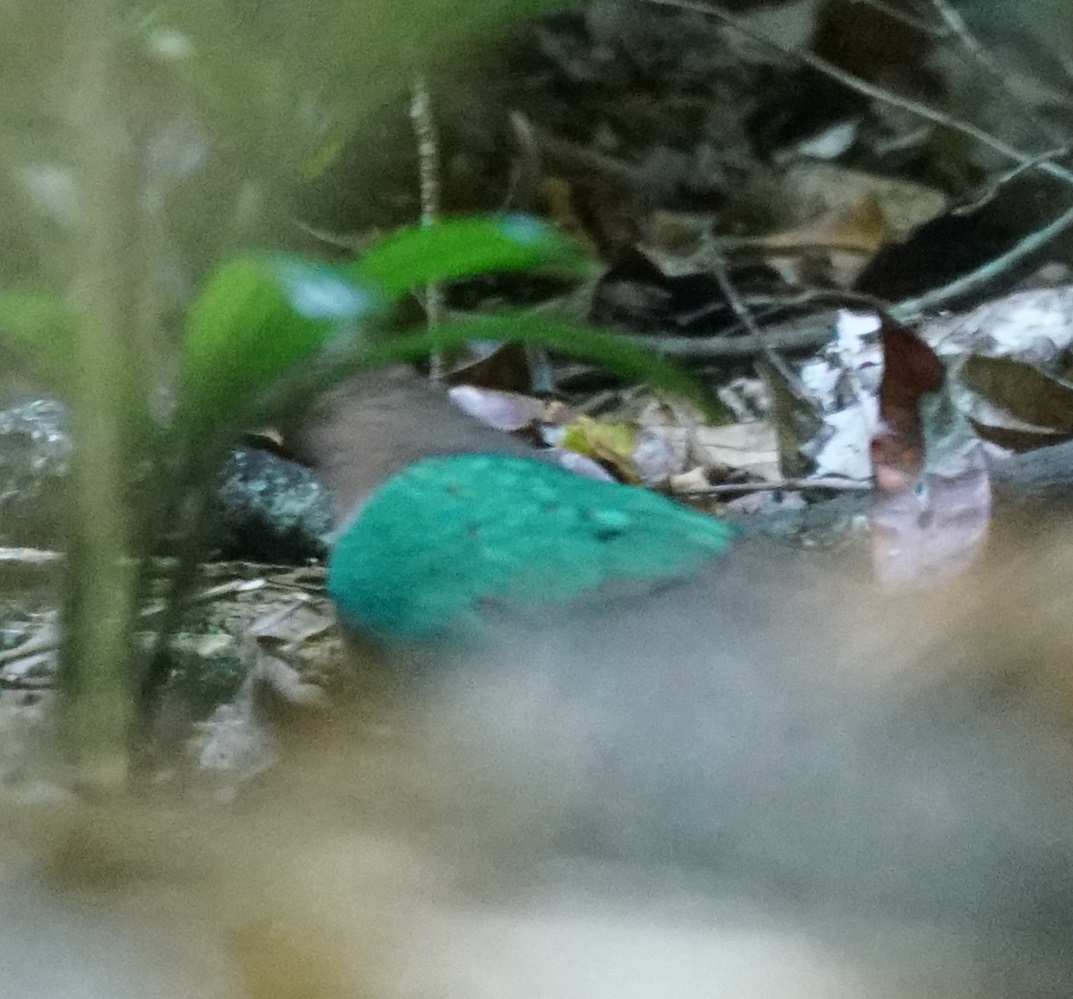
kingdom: Animalia
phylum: Chordata
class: Aves
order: Columbiformes
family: Columbidae
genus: Chalcophaps
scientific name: Chalcophaps longirostris
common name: Pacific emerald dove
